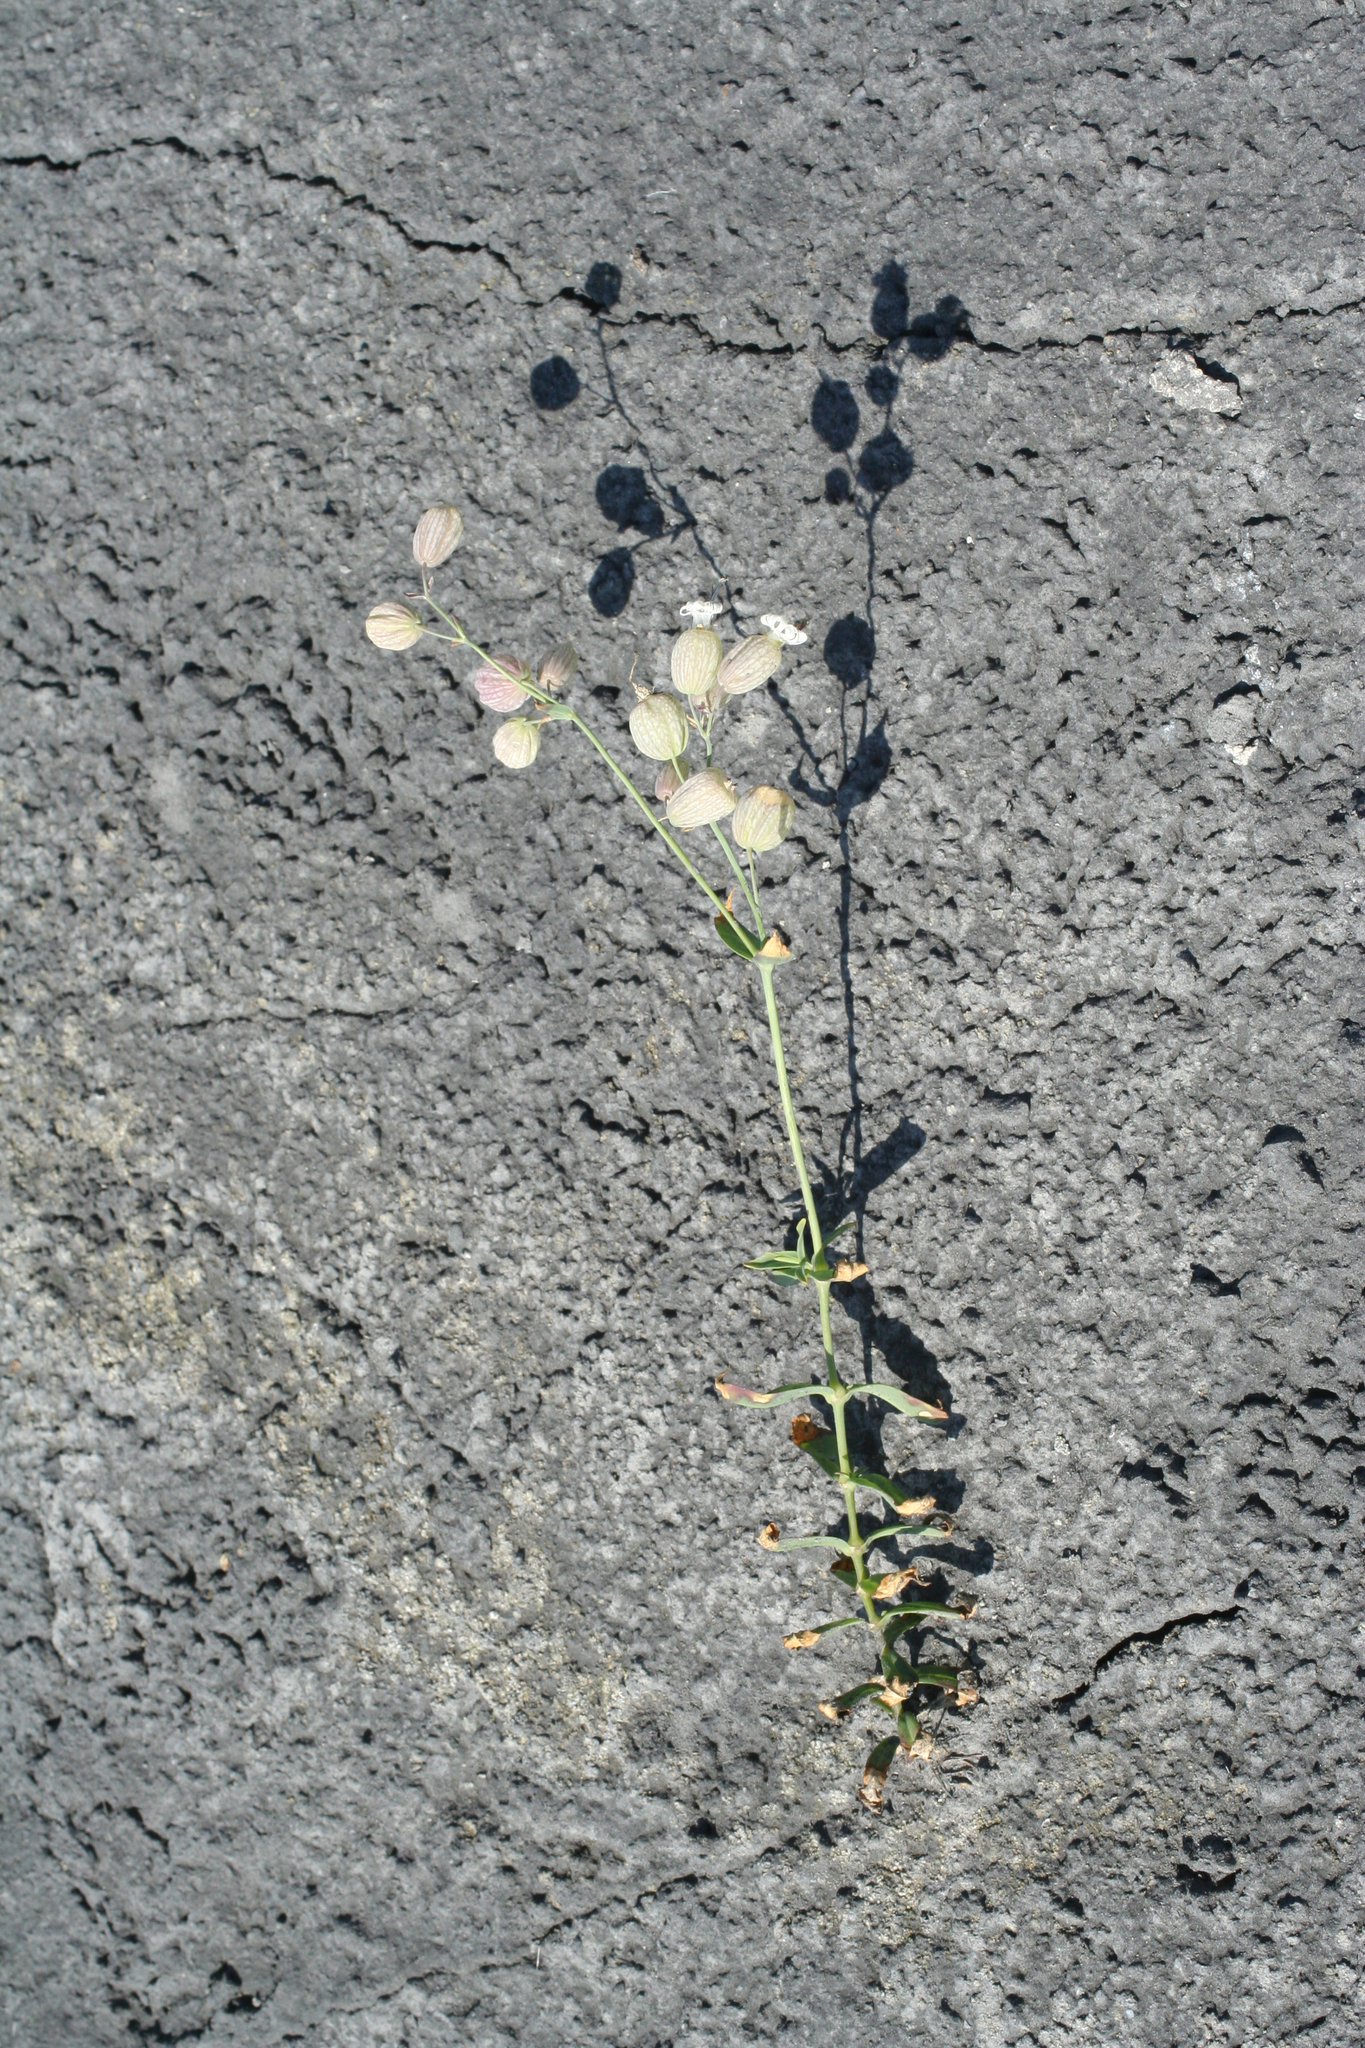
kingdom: Plantae
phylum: Tracheophyta
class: Magnoliopsida
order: Caryophyllales
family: Caryophyllaceae
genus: Silene
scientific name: Silene vulgaris
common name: Bladder campion
